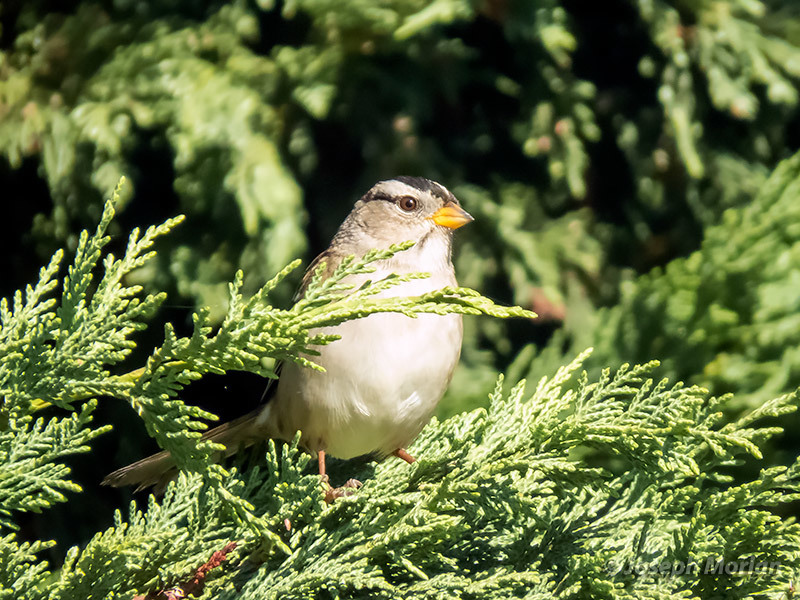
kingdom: Animalia
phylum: Chordata
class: Aves
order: Passeriformes
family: Passerellidae
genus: Zonotrichia
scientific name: Zonotrichia leucophrys
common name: White-crowned sparrow
